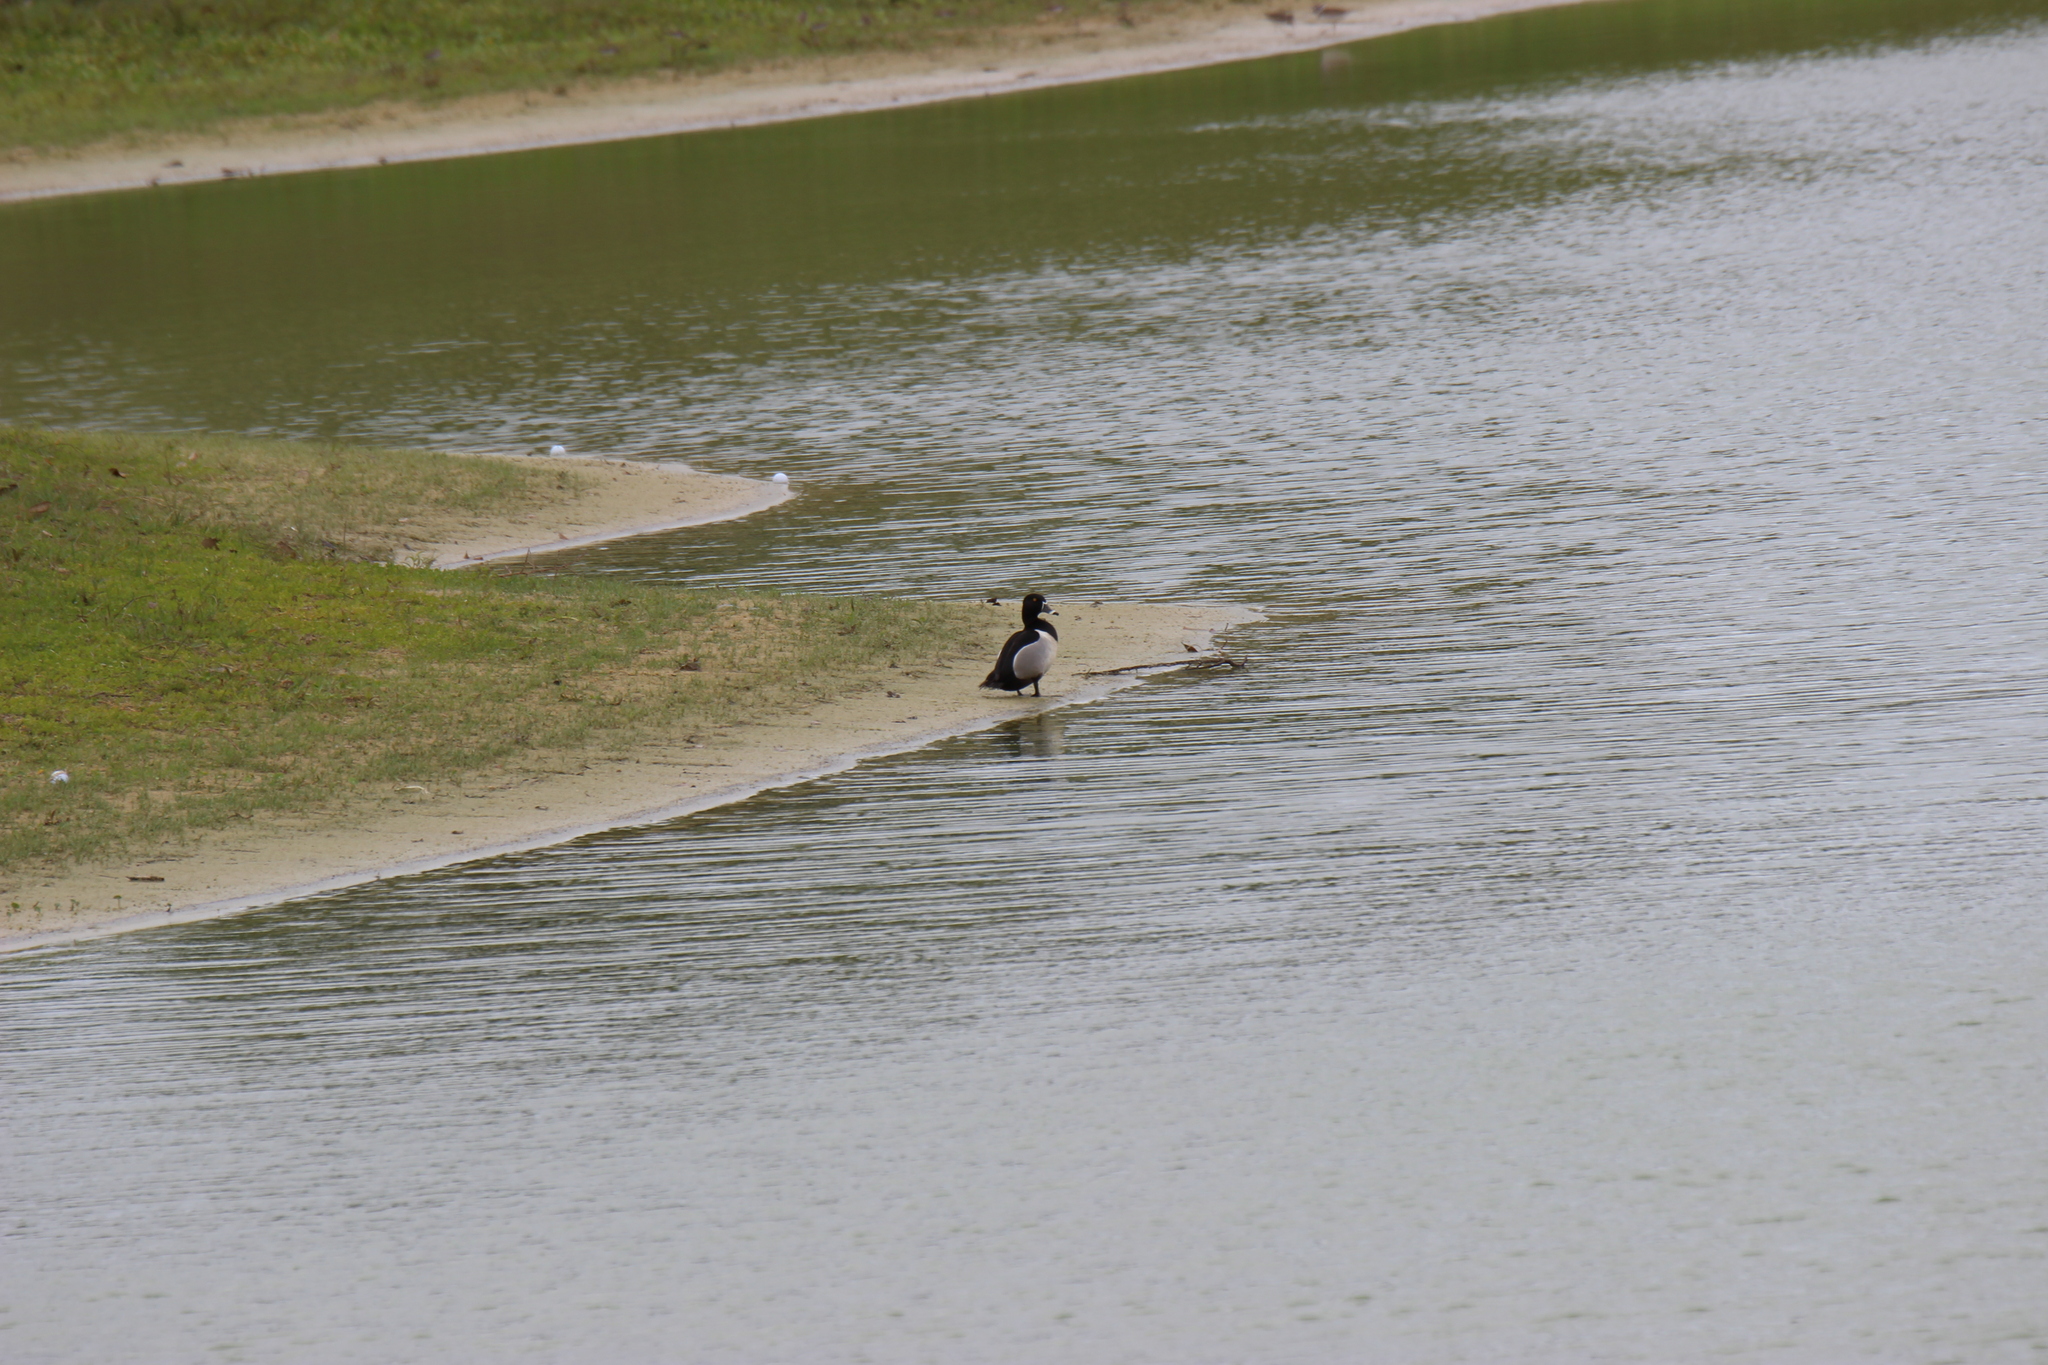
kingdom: Animalia
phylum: Chordata
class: Aves
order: Anseriformes
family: Anatidae
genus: Aythya
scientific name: Aythya collaris
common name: Ring-necked duck
